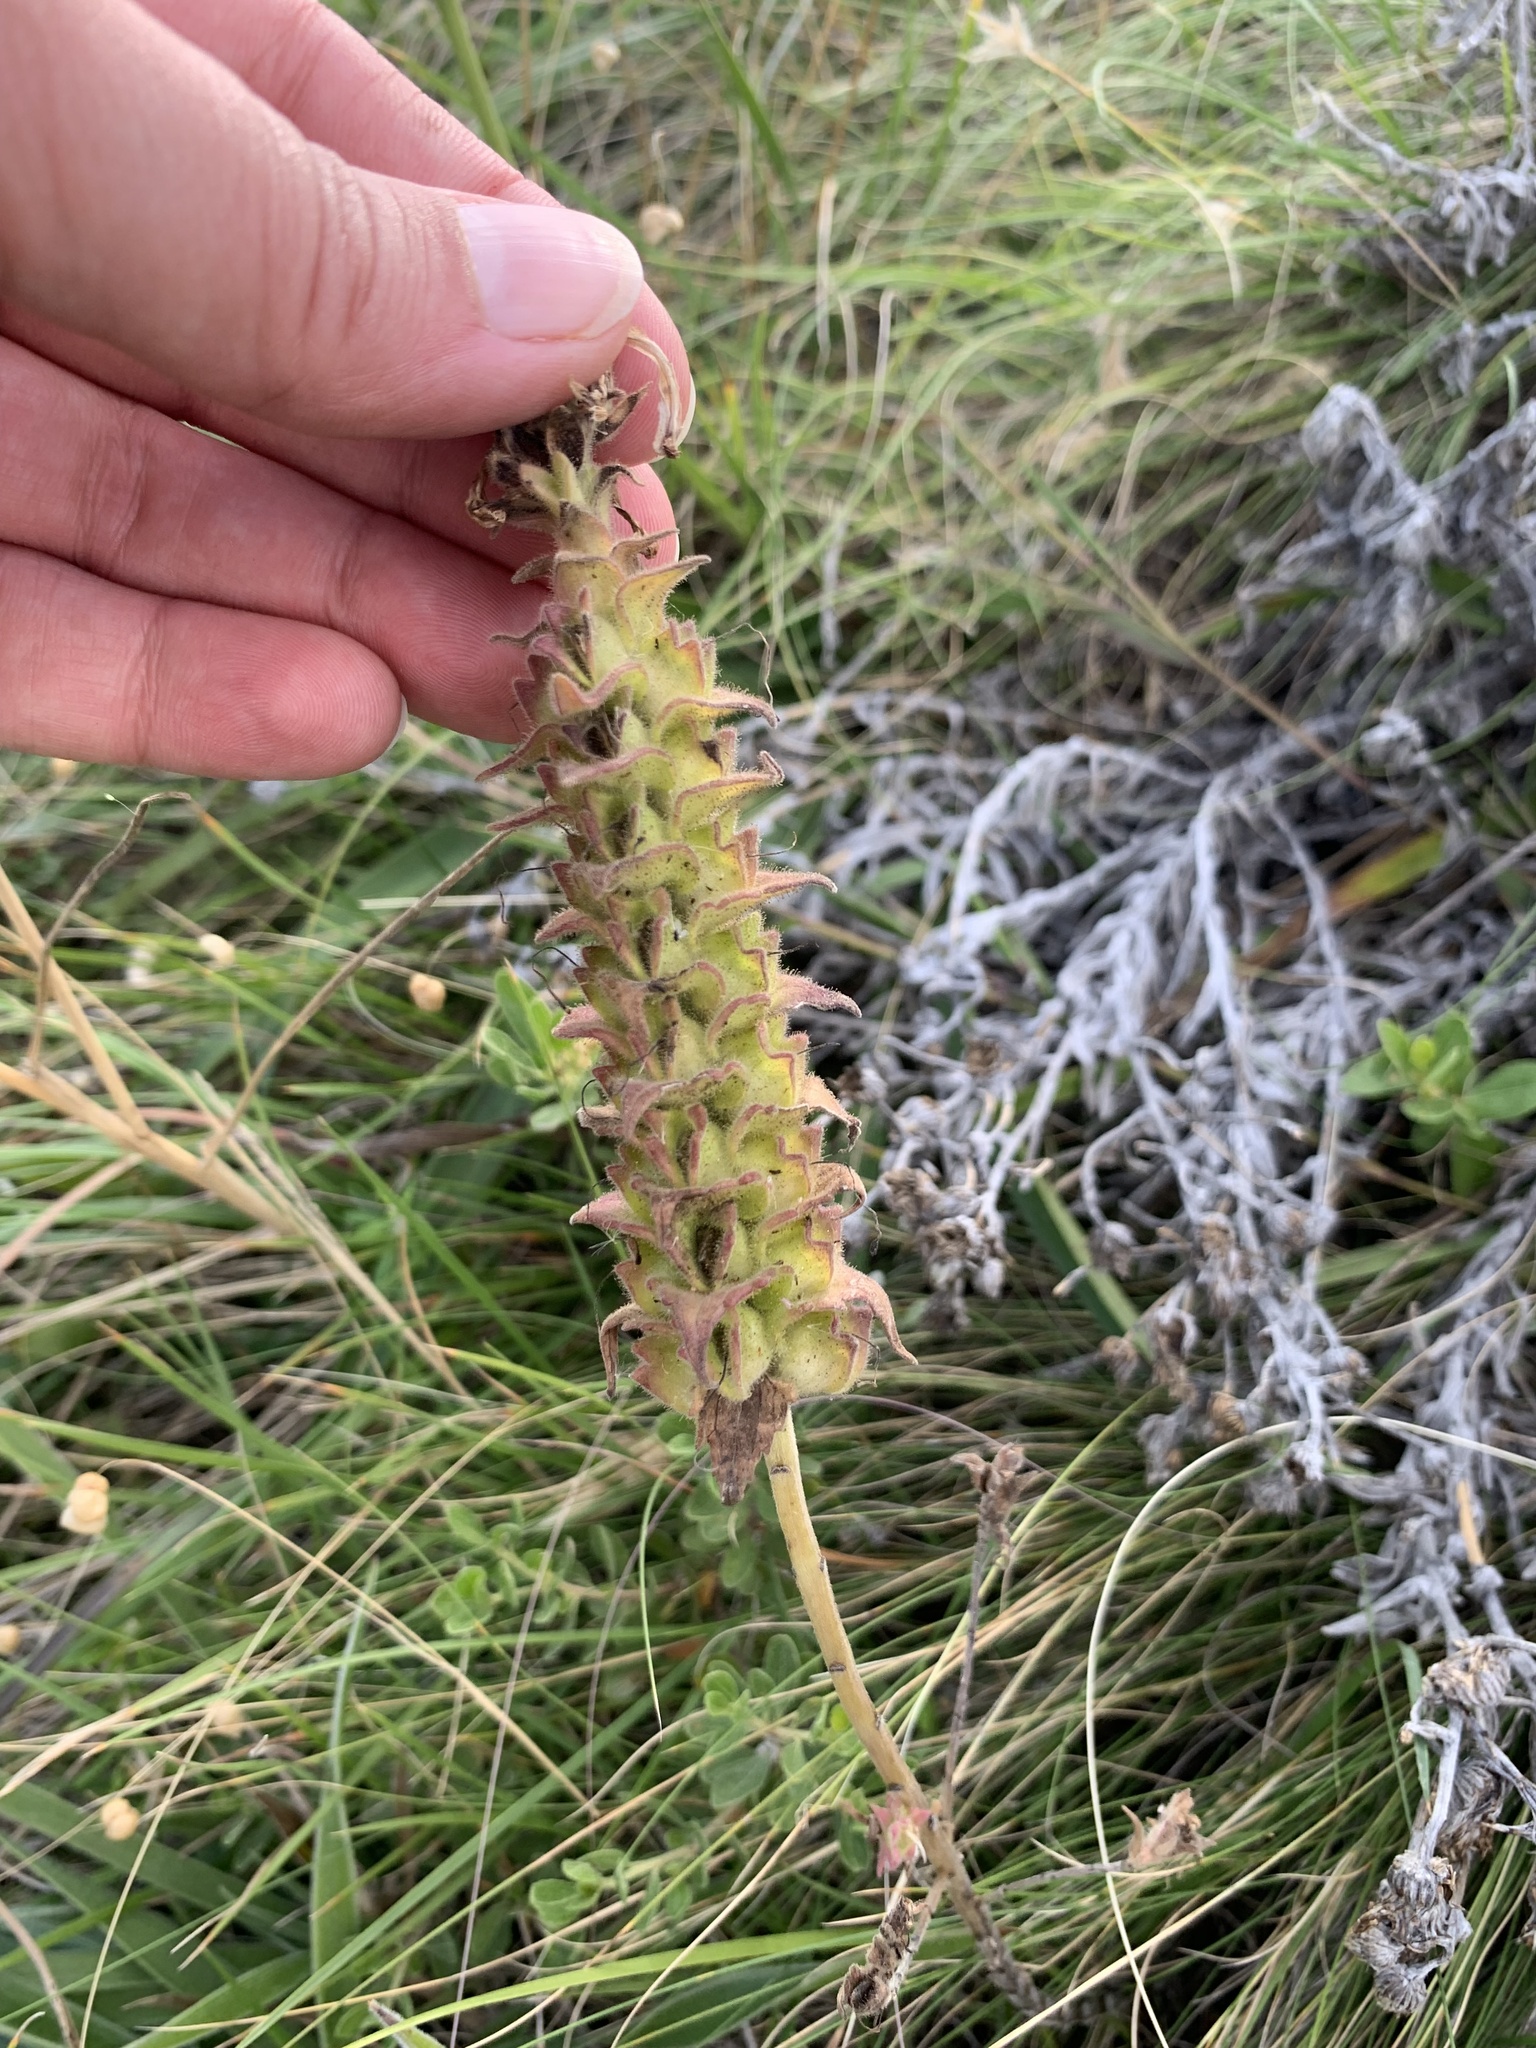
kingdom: Plantae
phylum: Tracheophyta
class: Magnoliopsida
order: Lamiales
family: Orobanchaceae
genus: Bellardia
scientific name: Bellardia trixago
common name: Mediterranean lineseed
